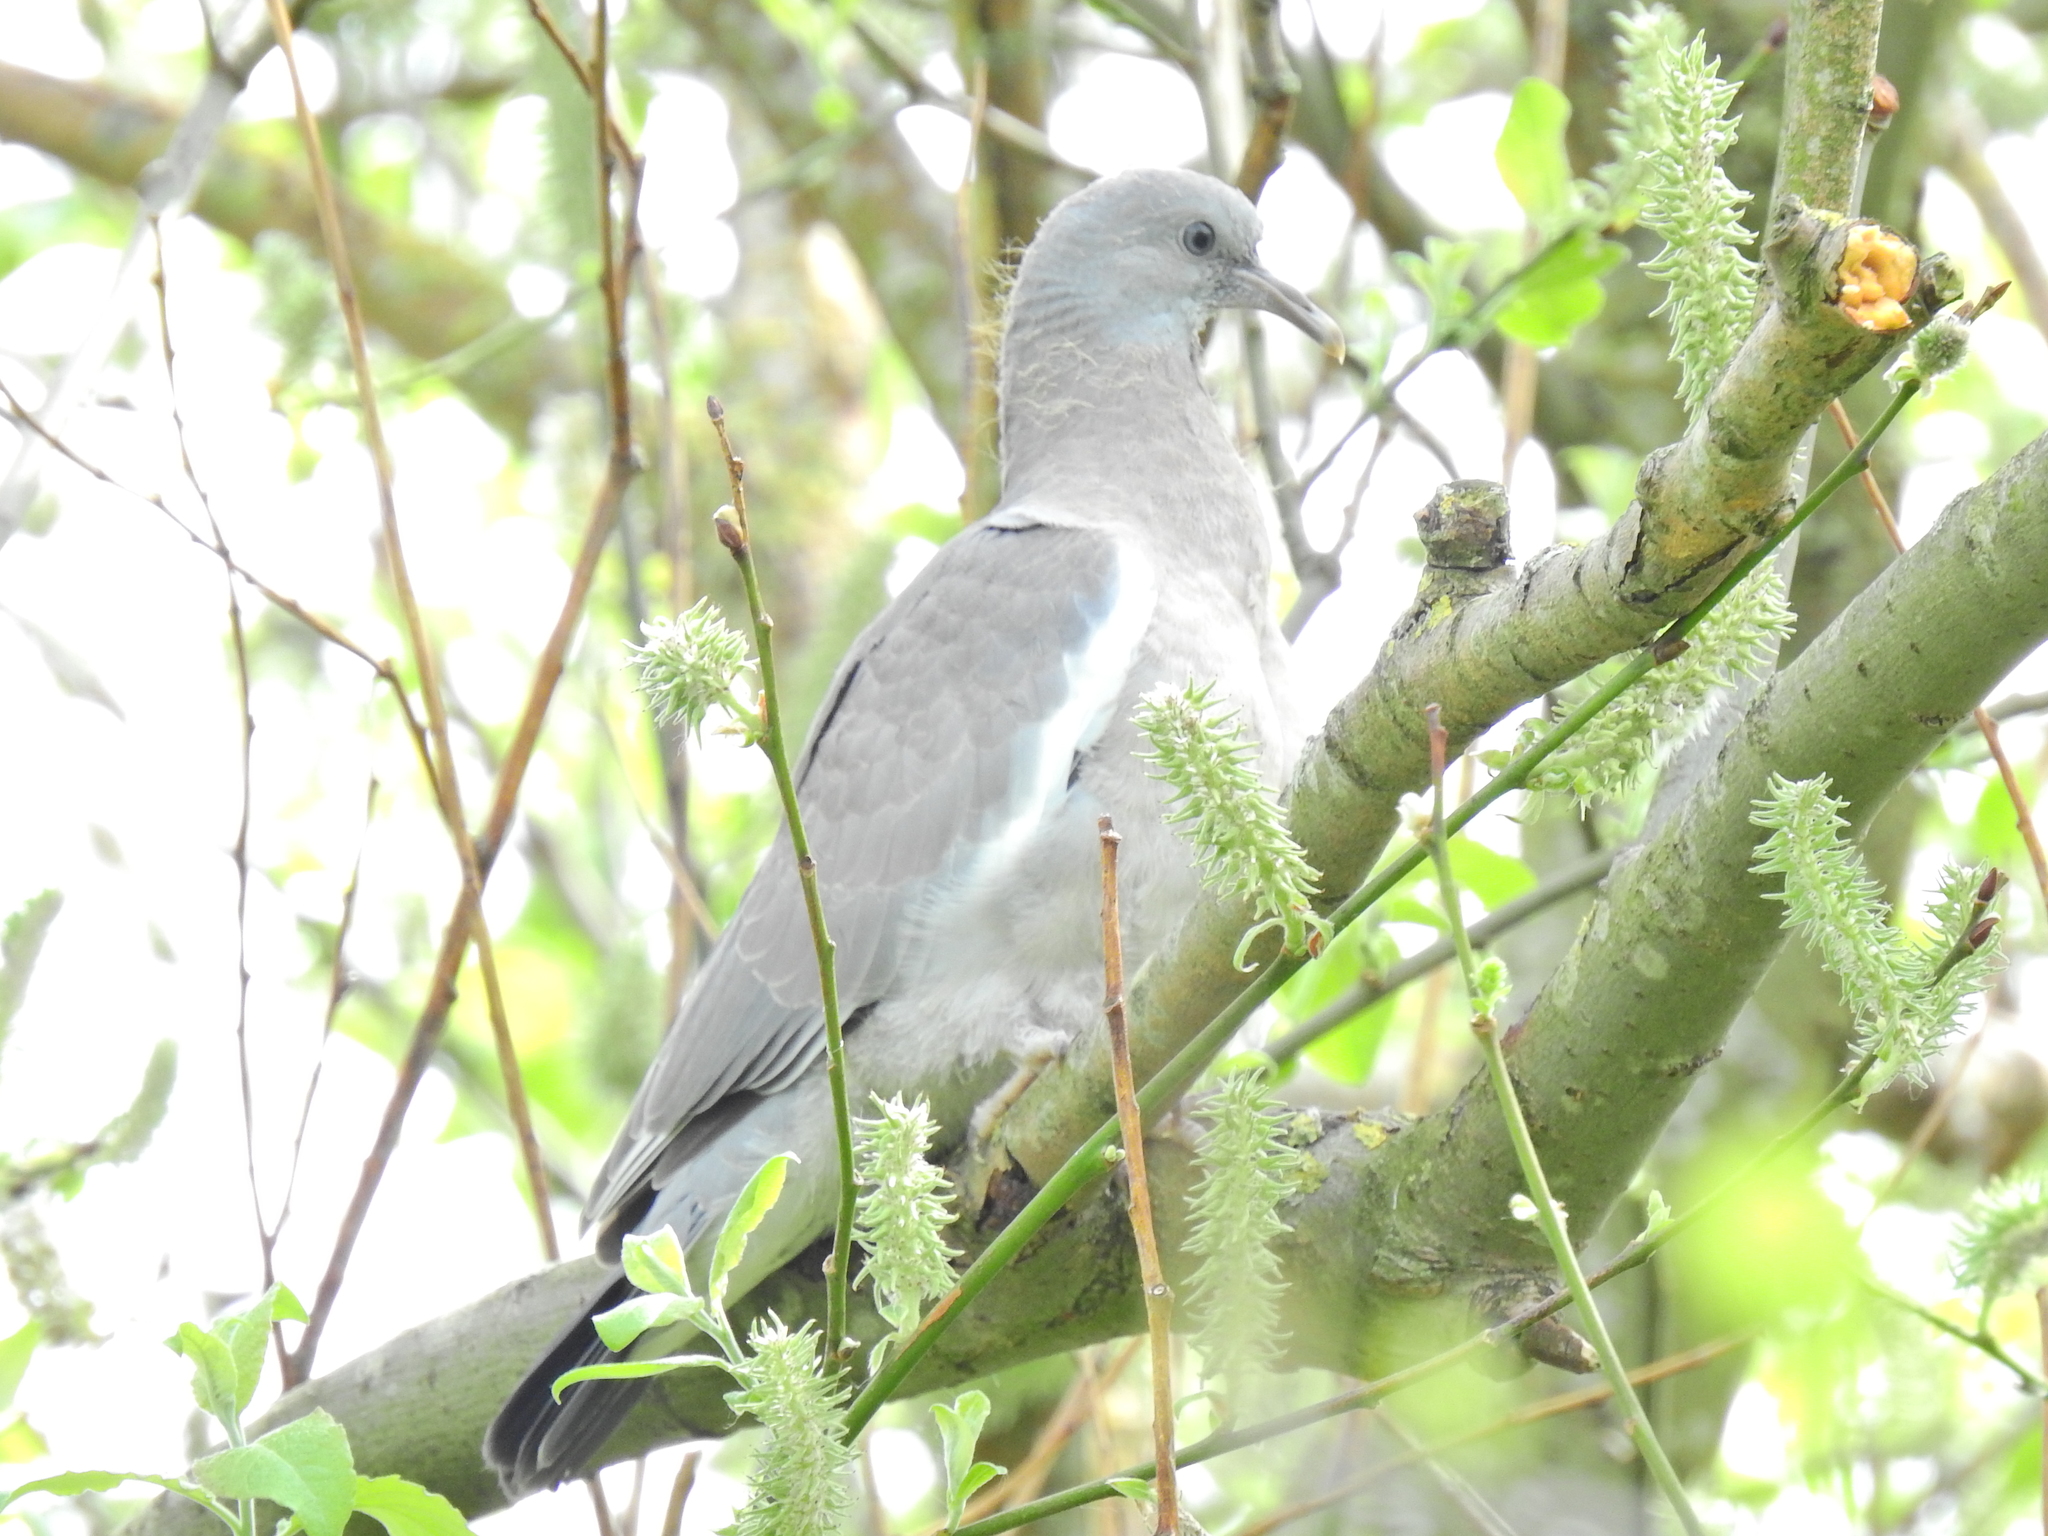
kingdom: Animalia
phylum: Chordata
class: Aves
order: Columbiformes
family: Columbidae
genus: Columba
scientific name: Columba palumbus
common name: Common wood pigeon
